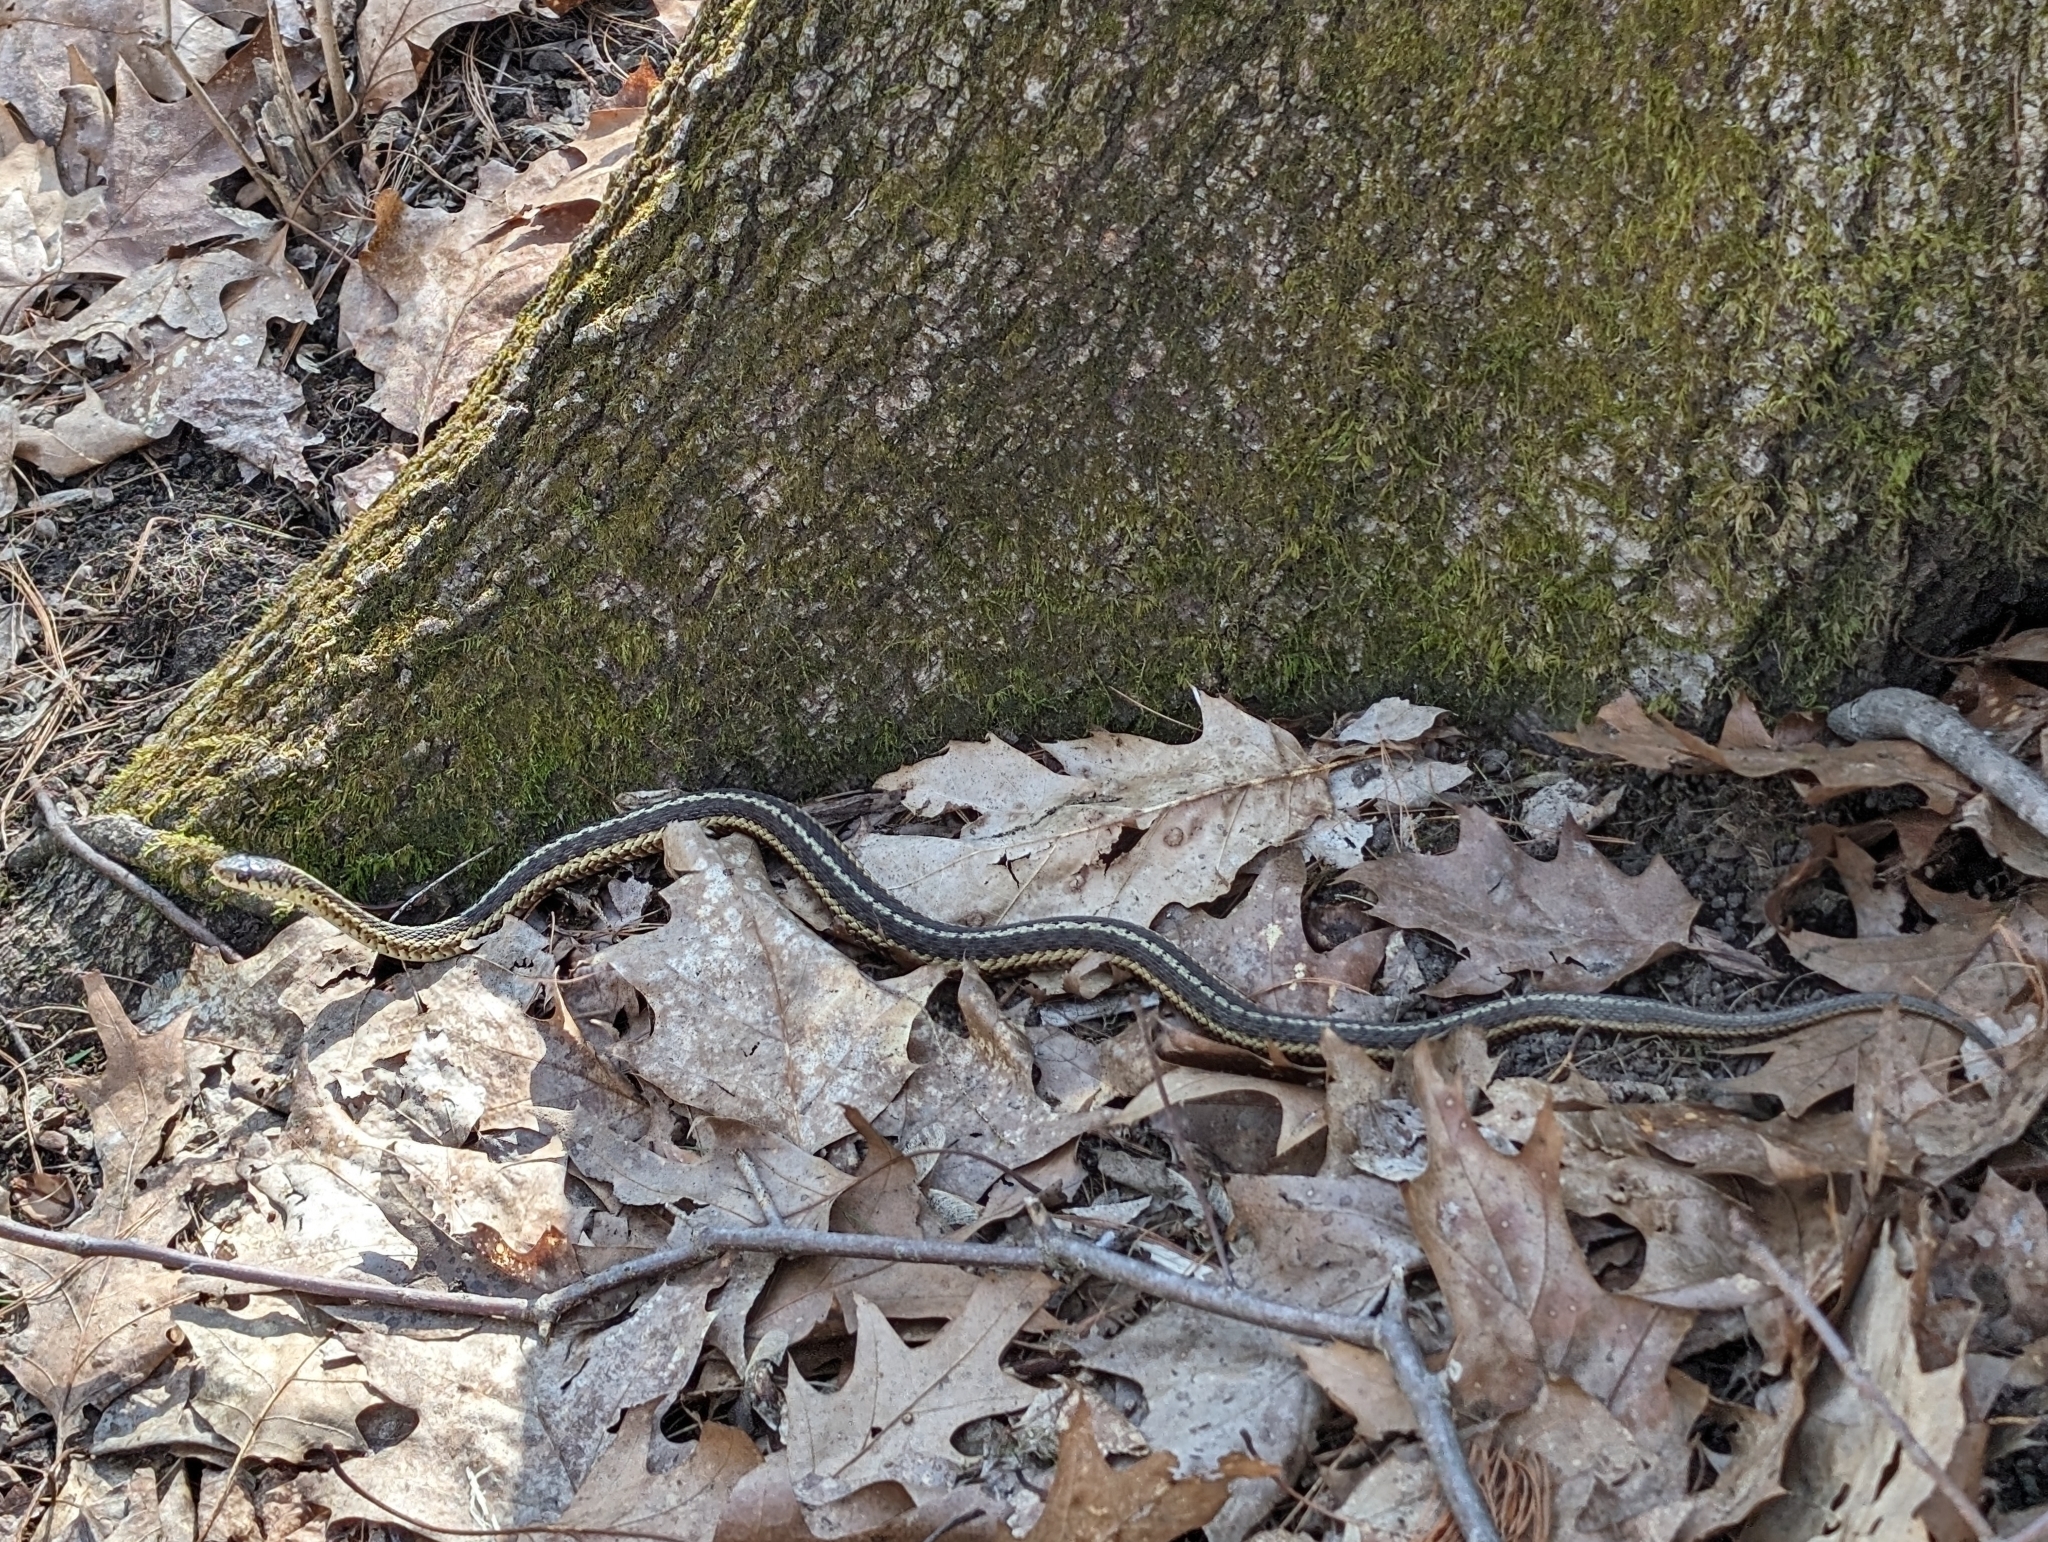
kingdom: Animalia
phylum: Chordata
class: Squamata
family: Colubridae
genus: Thamnophis
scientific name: Thamnophis sirtalis
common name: Common garter snake
